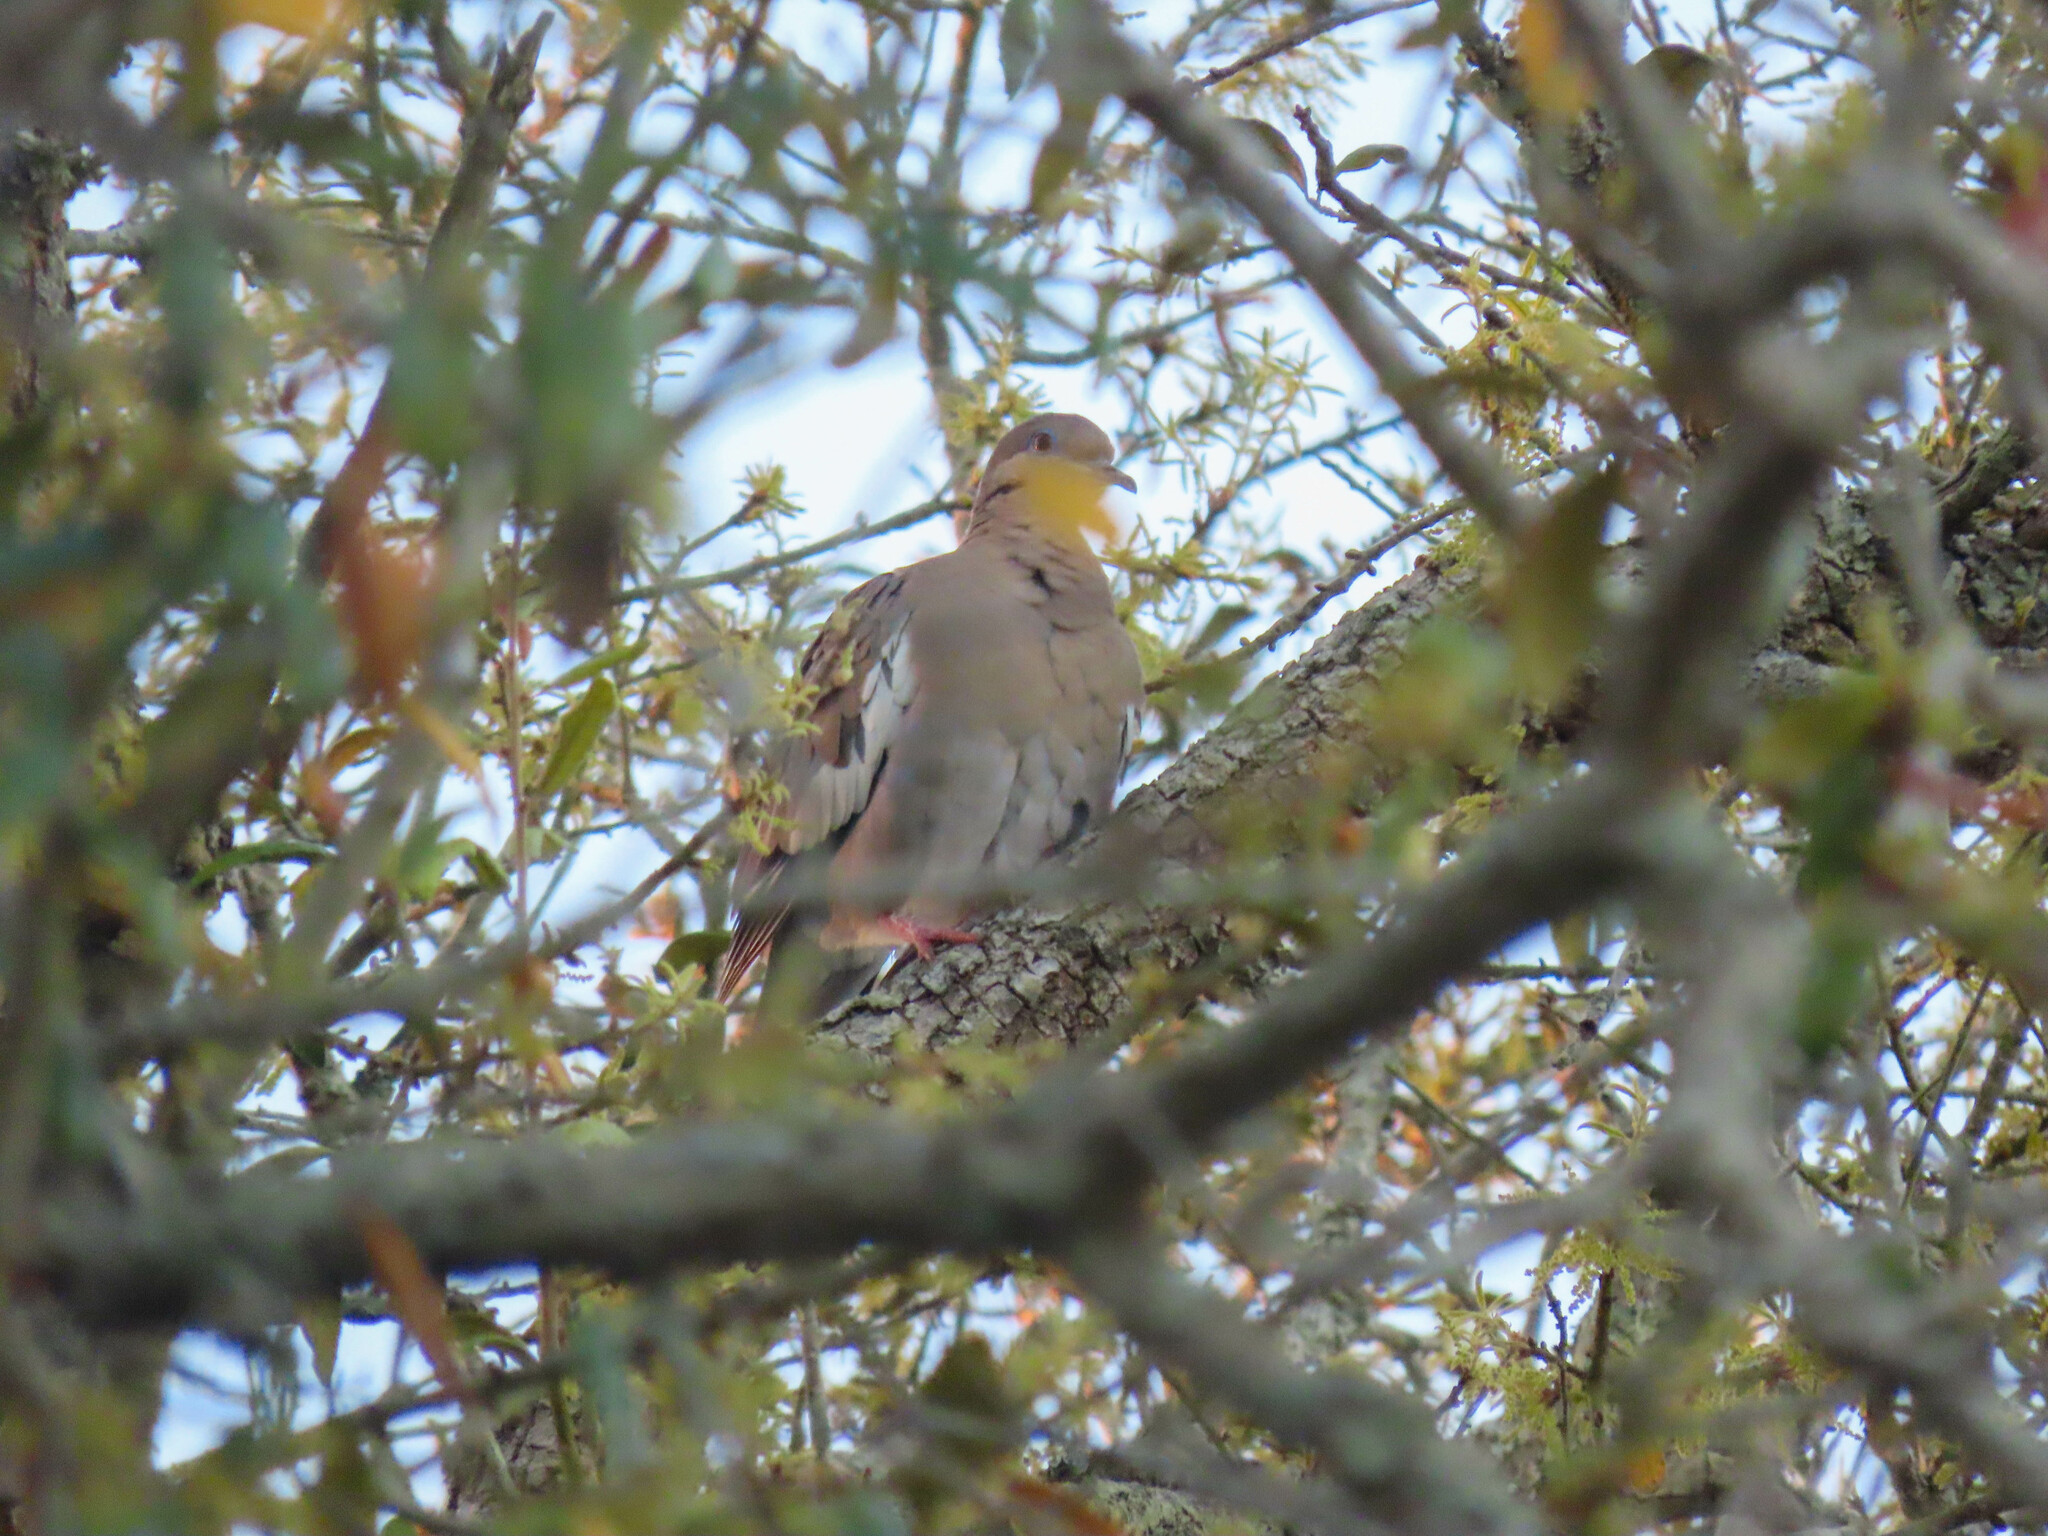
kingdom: Animalia
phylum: Chordata
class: Aves
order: Columbiformes
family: Columbidae
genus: Zenaida
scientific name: Zenaida asiatica
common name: White-winged dove
